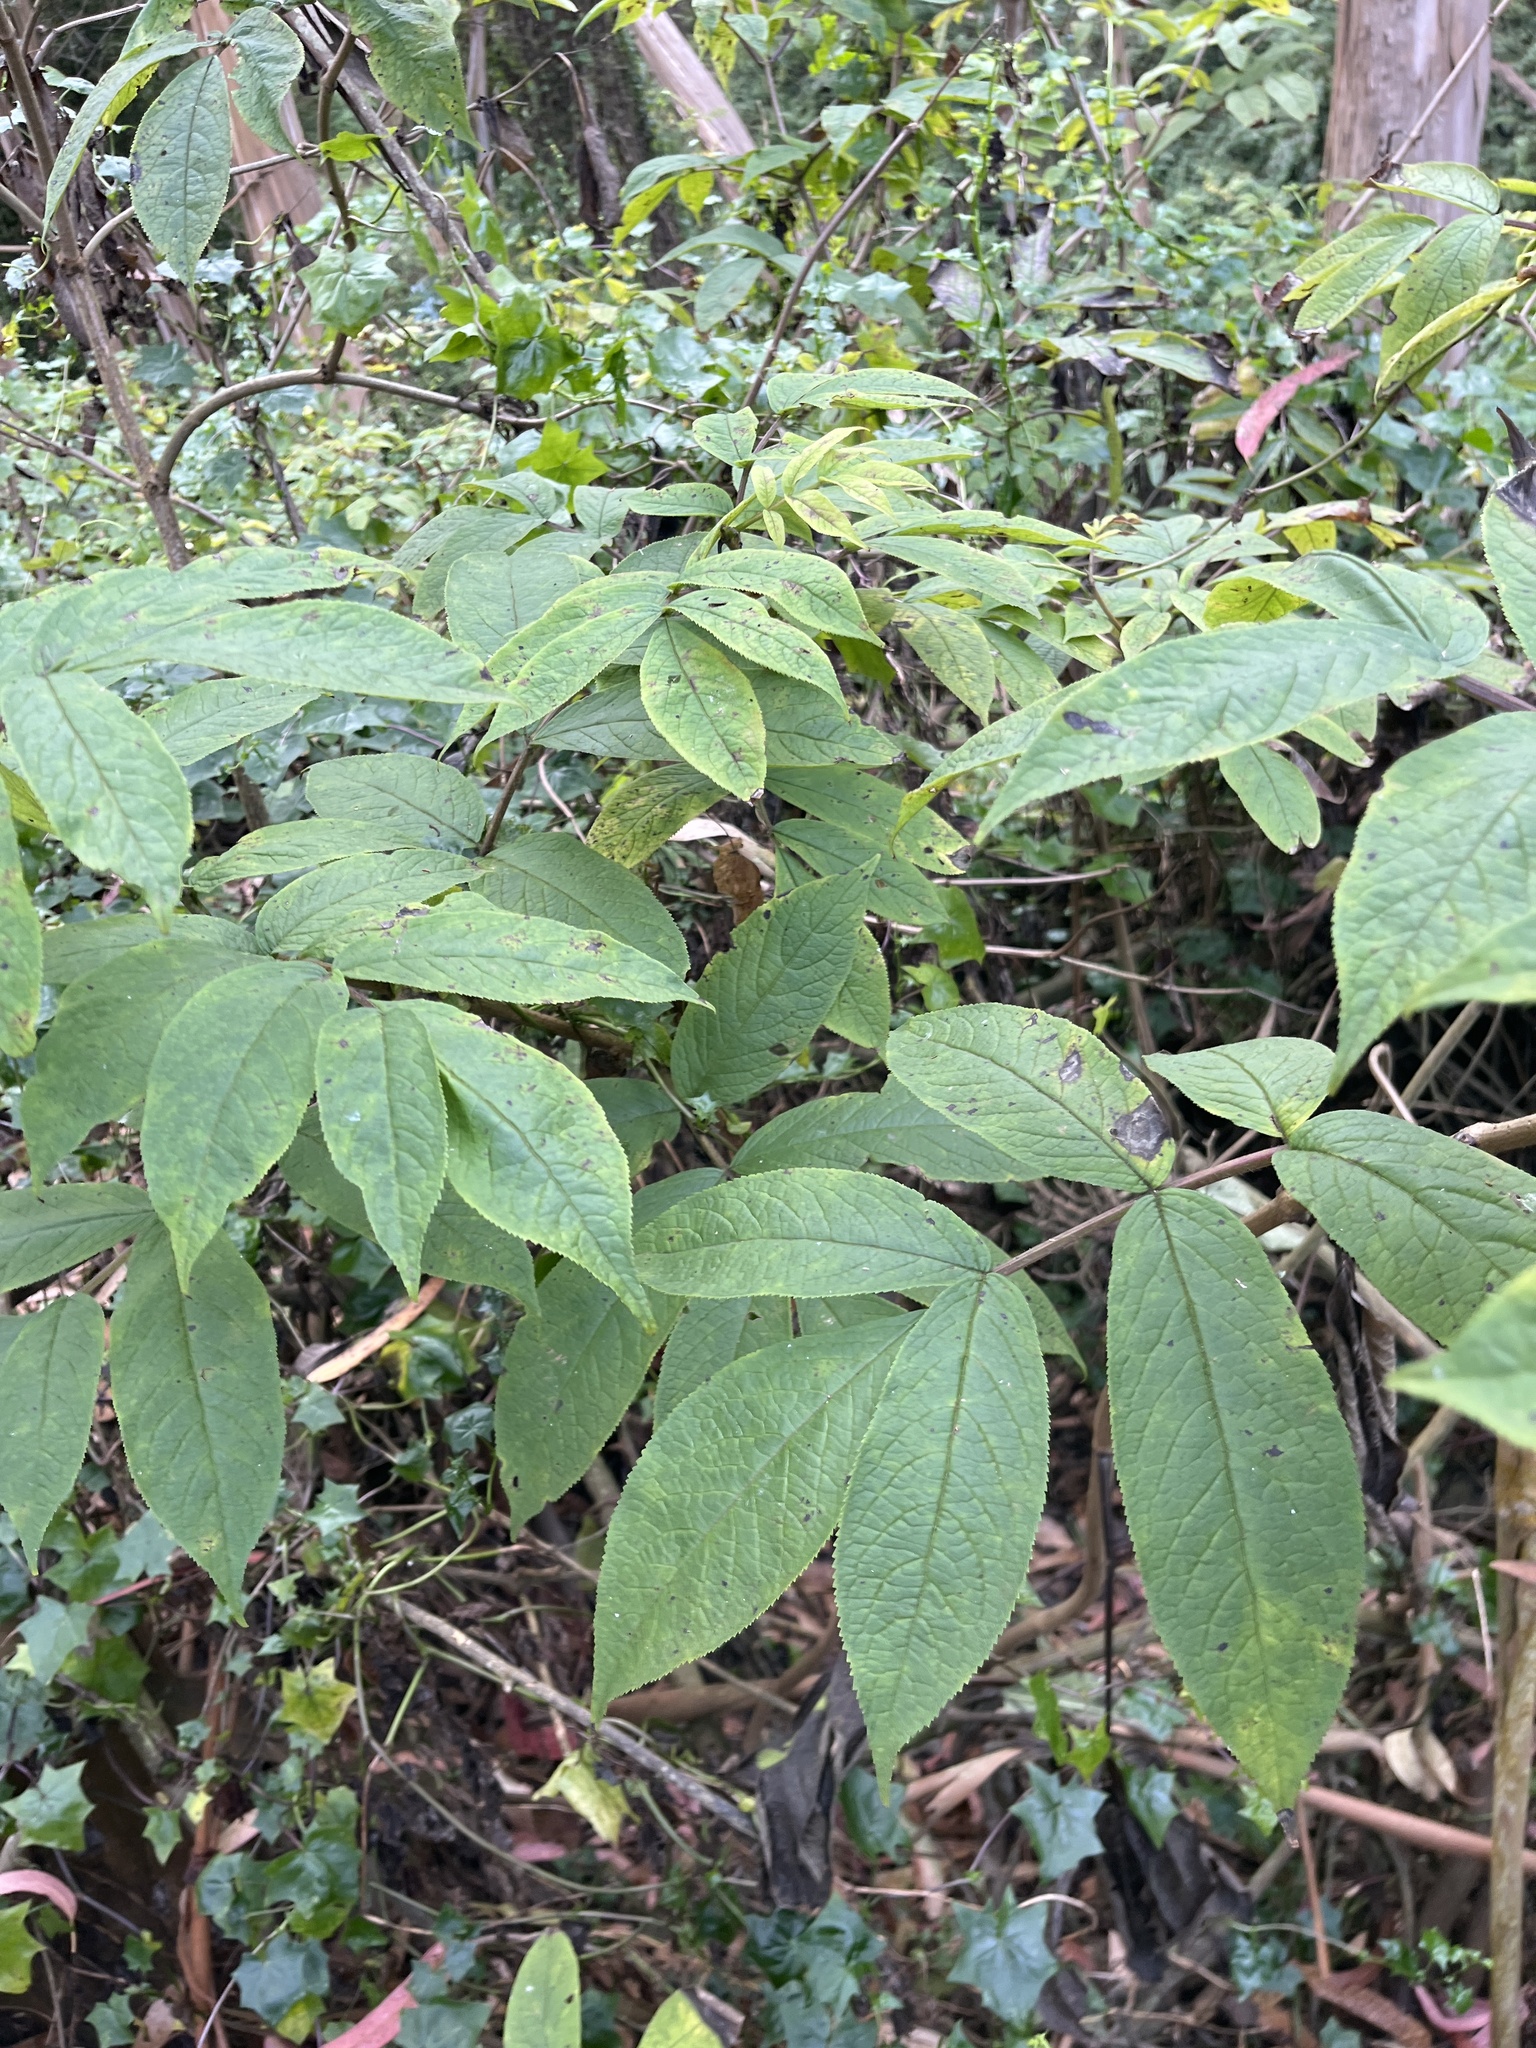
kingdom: Plantae
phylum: Tracheophyta
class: Magnoliopsida
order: Dipsacales
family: Viburnaceae
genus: Sambucus
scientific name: Sambucus racemosa
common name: Red-berried elder
